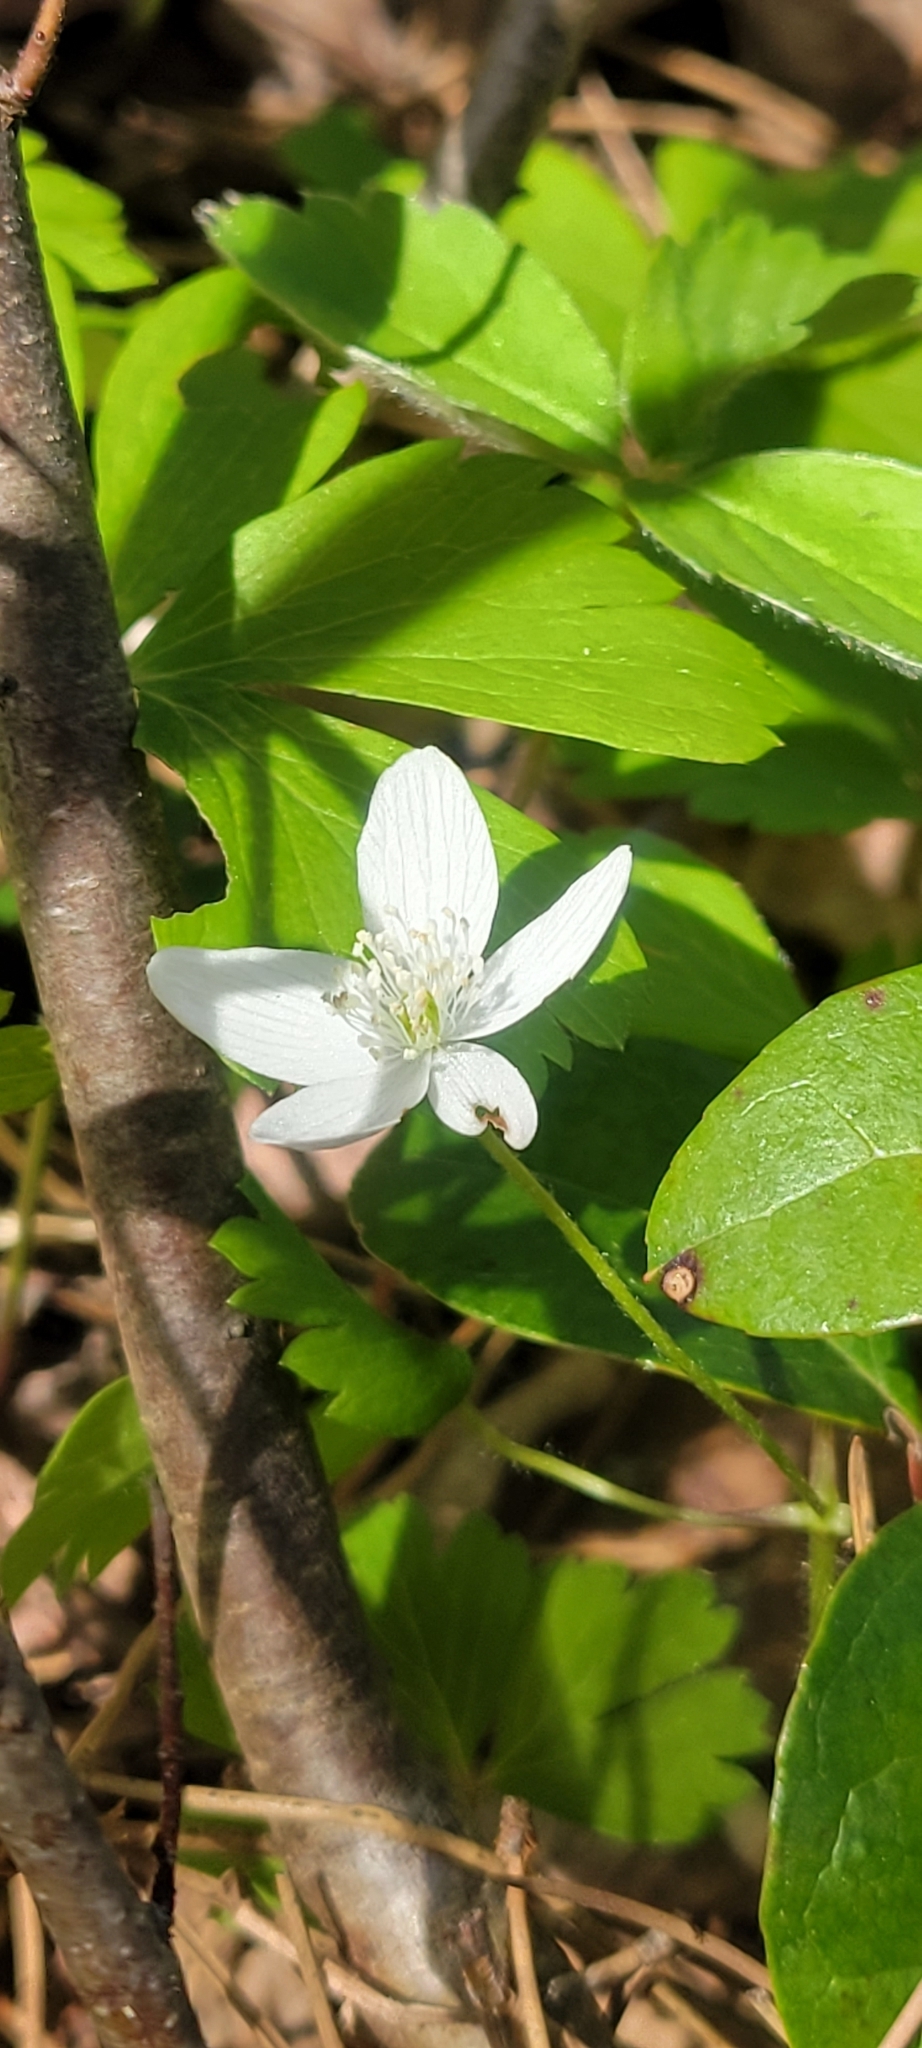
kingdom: Plantae
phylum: Tracheophyta
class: Magnoliopsida
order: Ranunculales
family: Ranunculaceae
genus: Anemone
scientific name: Anemone quinquefolia
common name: Wood anemone
